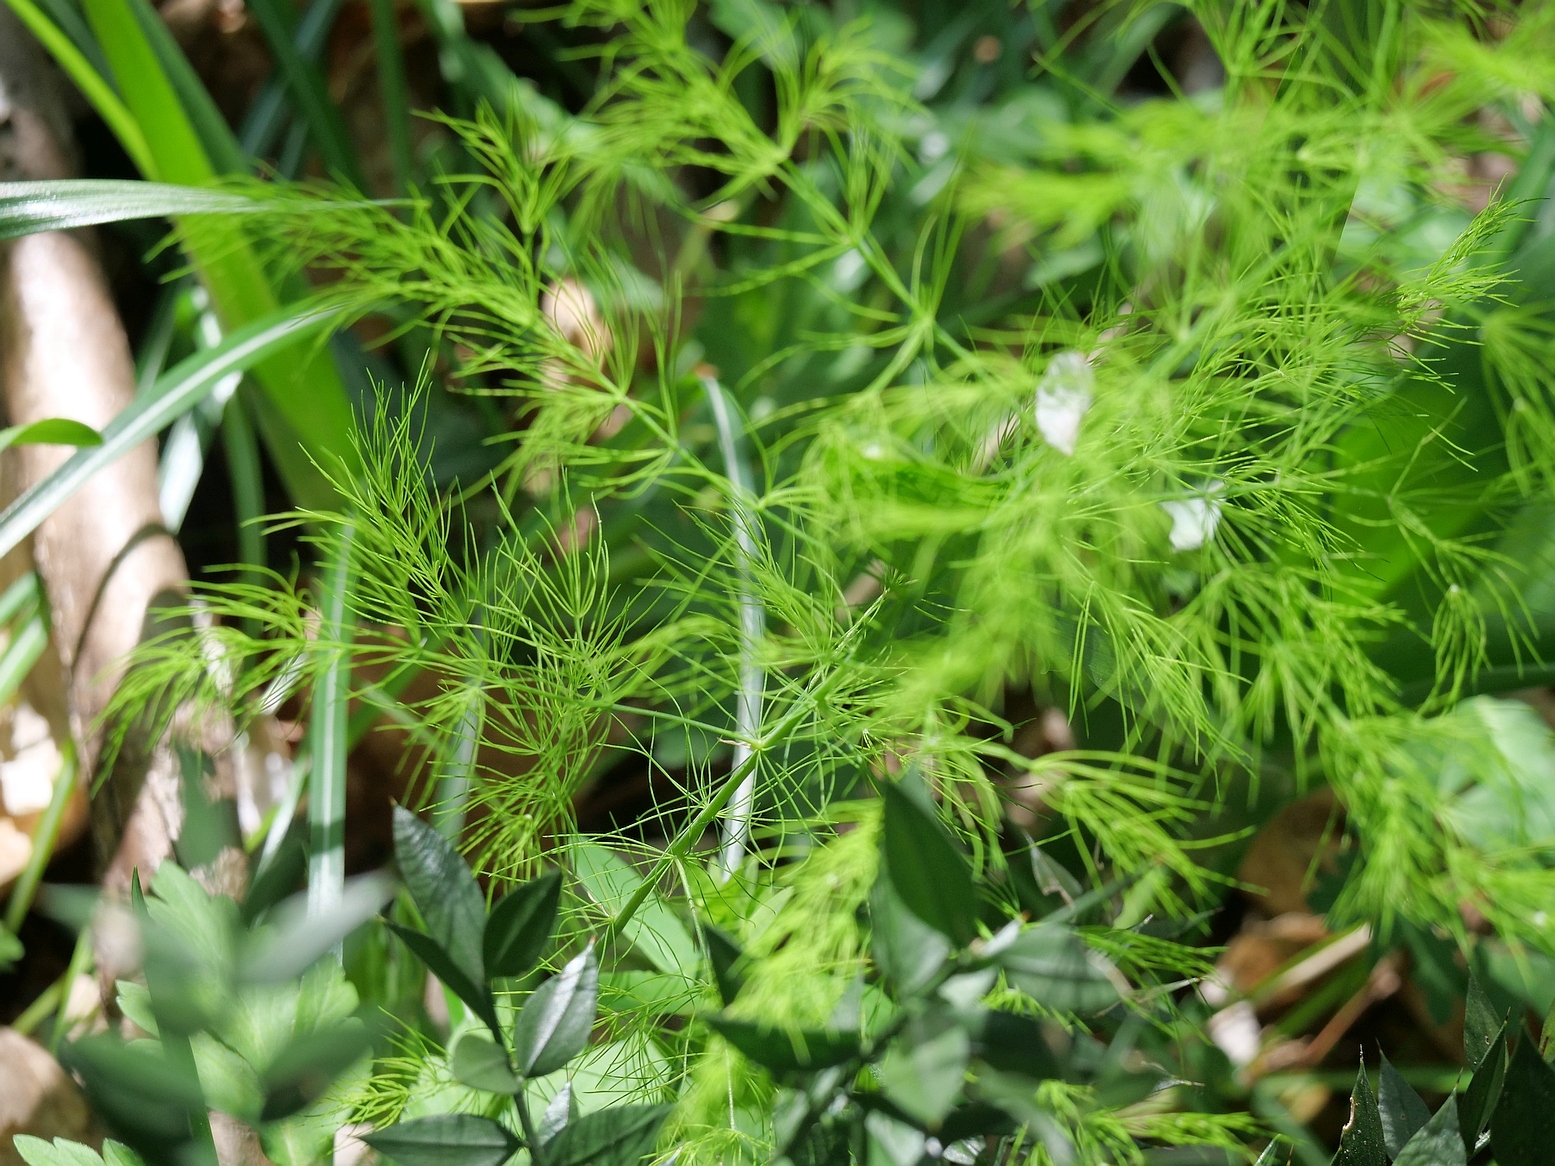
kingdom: Plantae
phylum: Tracheophyta
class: Liliopsida
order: Asparagales
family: Asparagaceae
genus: Asparagus
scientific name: Asparagus tenuifolius
